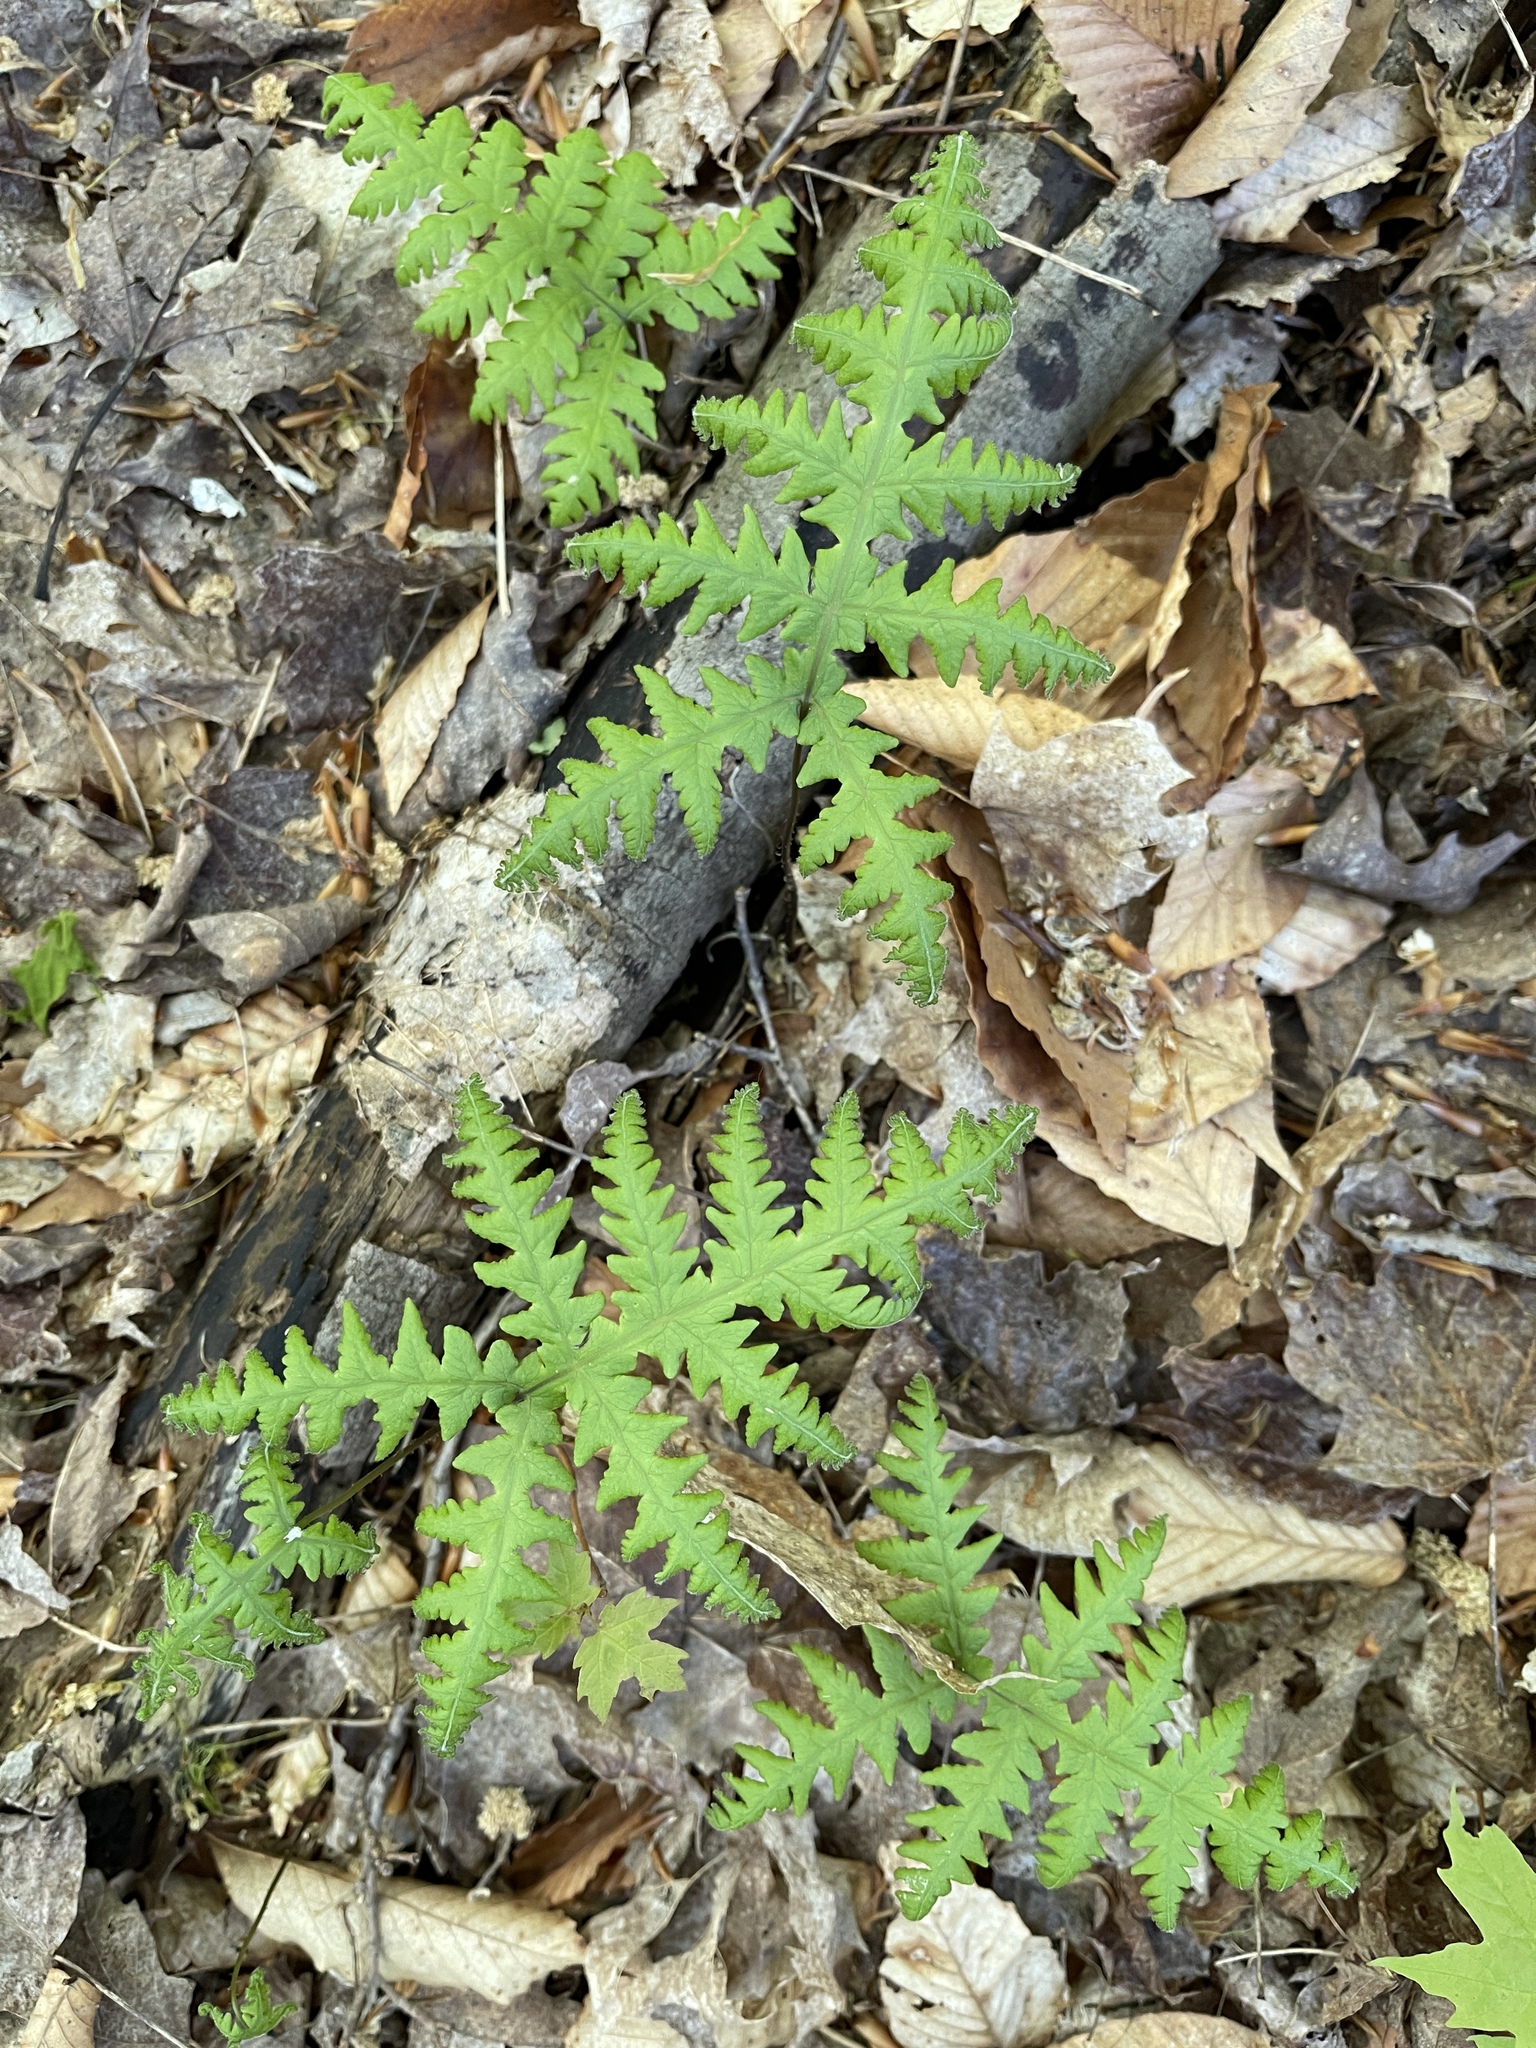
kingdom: Plantae
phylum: Tracheophyta
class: Polypodiopsida
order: Polypodiales
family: Thelypteridaceae
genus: Phegopteris
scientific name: Phegopteris hexagonoptera
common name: Broad beech fern
